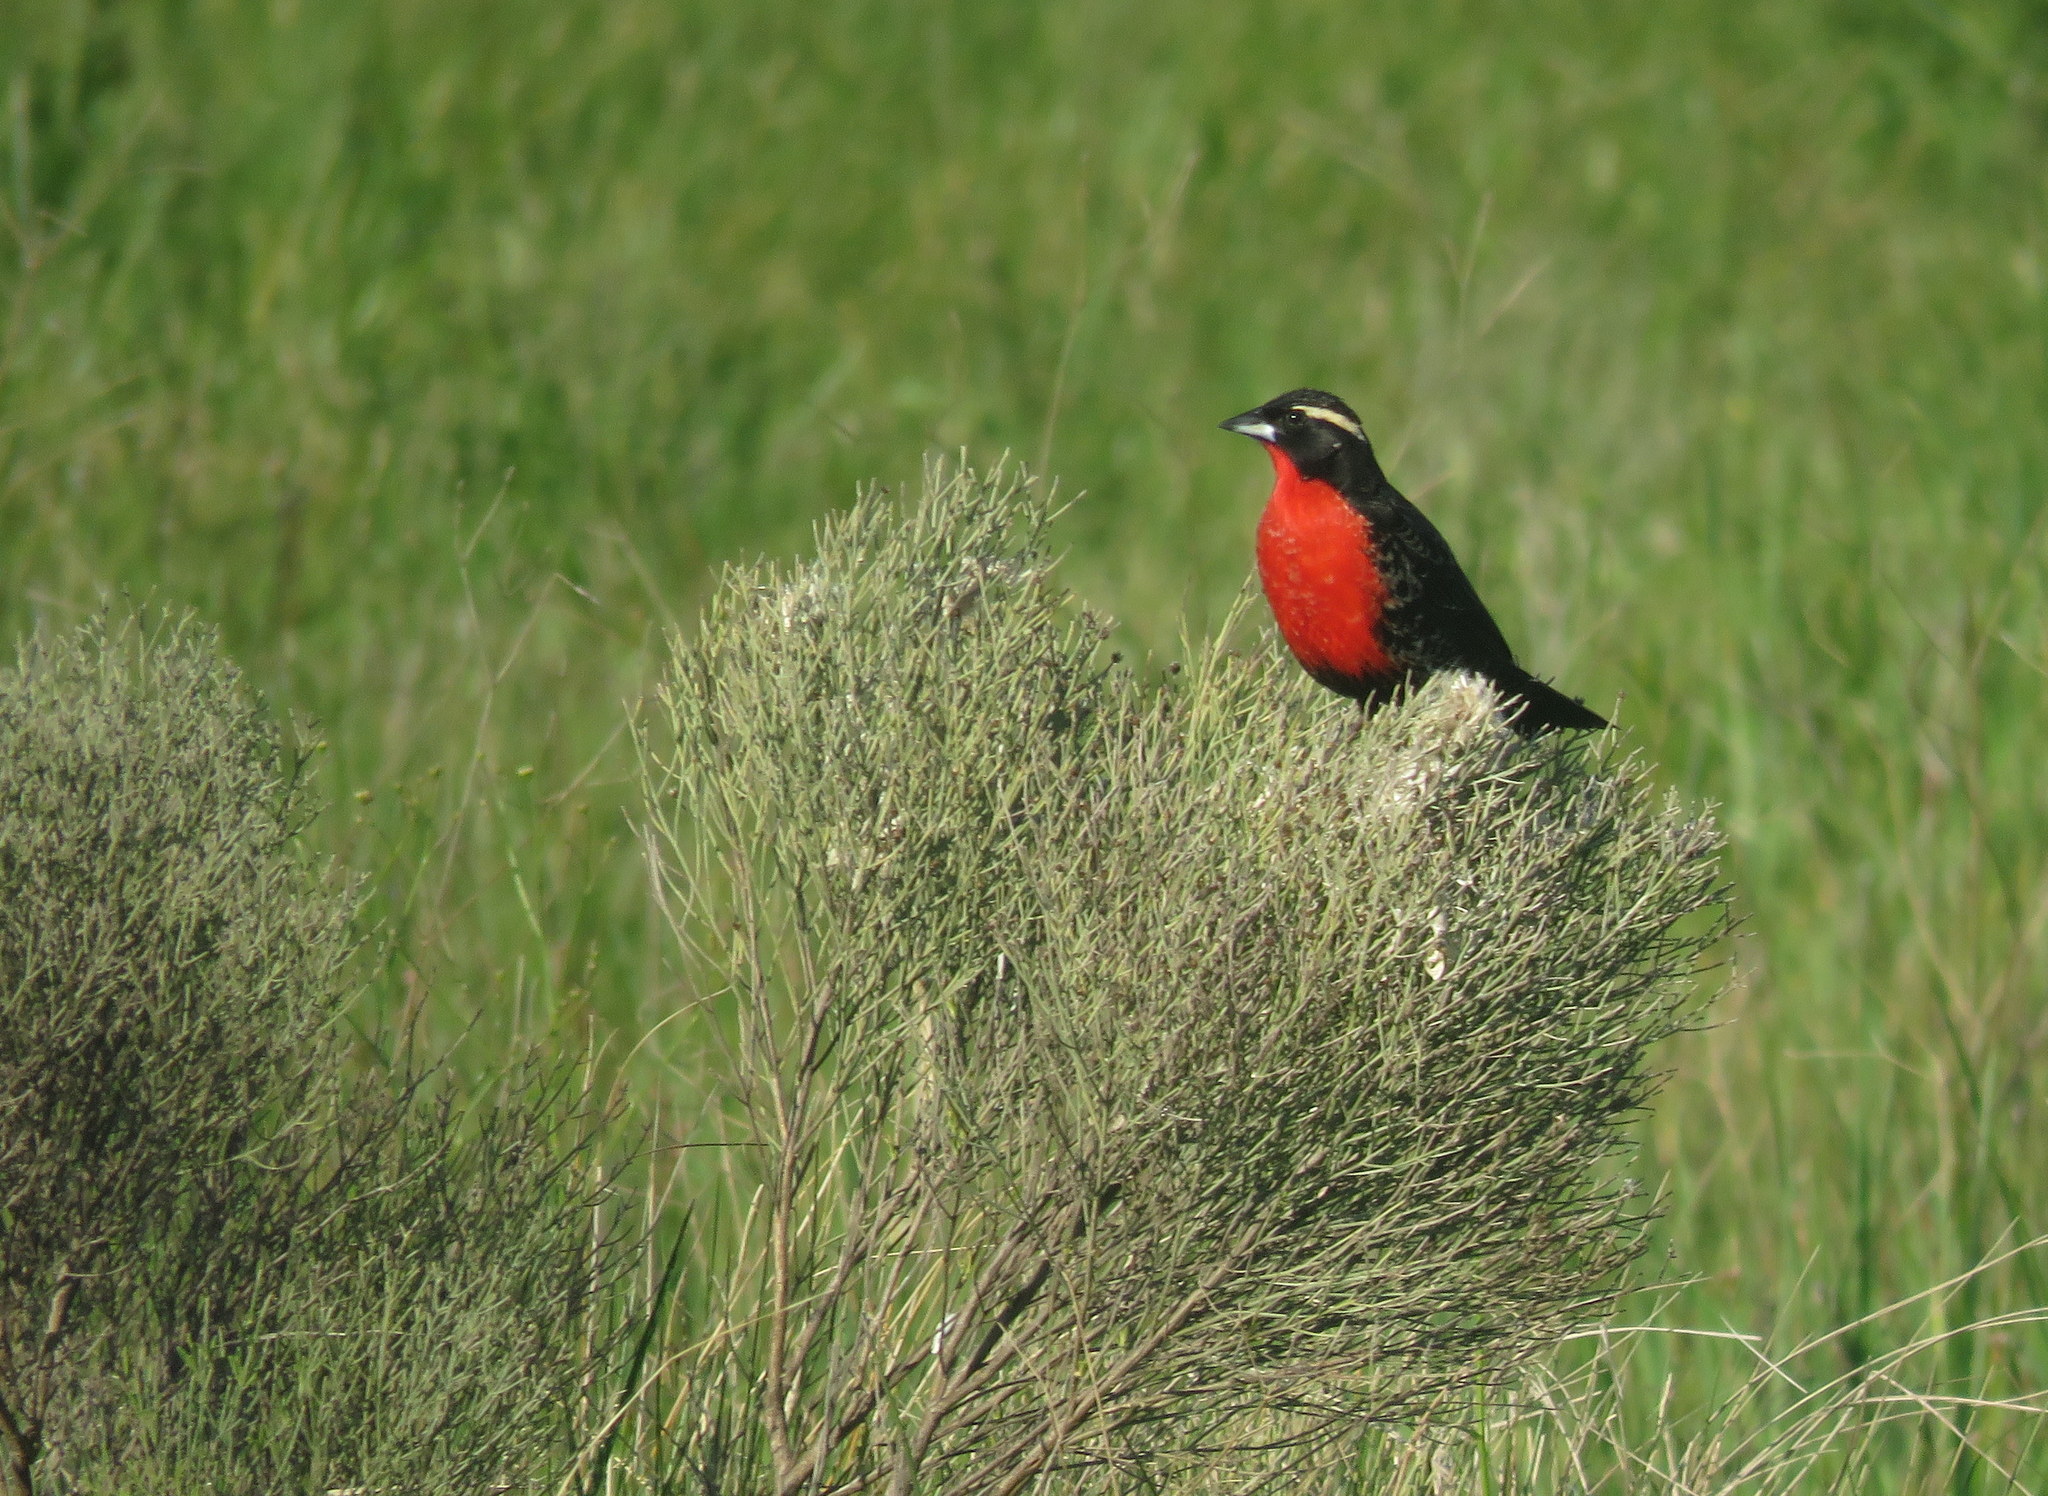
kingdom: Animalia
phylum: Chordata
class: Aves
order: Passeriformes
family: Icteridae
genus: Sturnella
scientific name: Sturnella superciliaris
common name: White-browed blackbird
